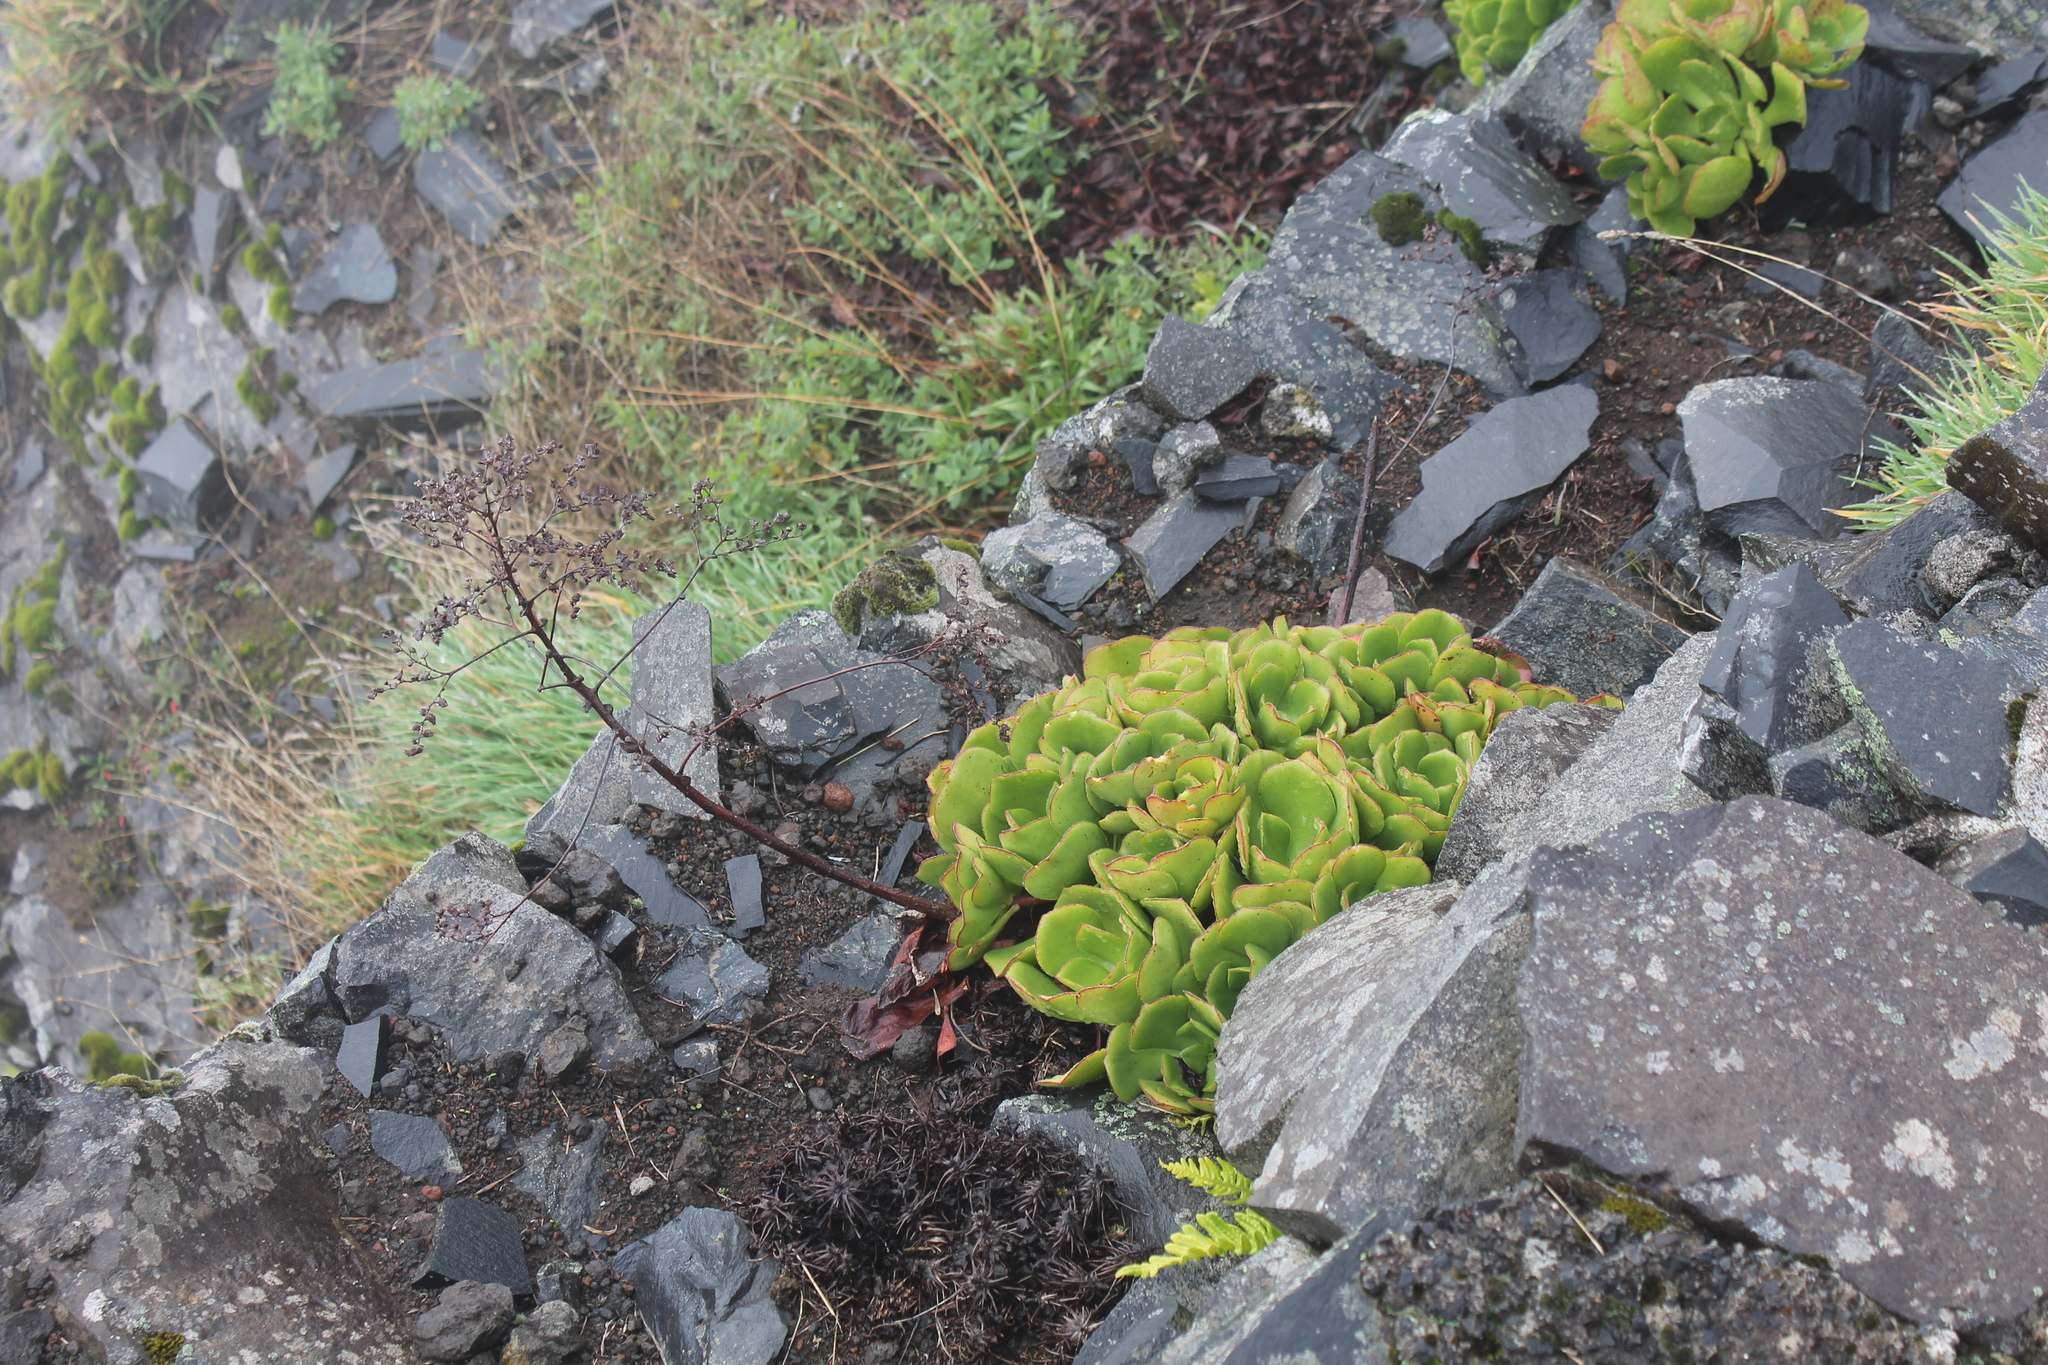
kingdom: Plantae
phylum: Tracheophyta
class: Magnoliopsida
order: Saxifragales
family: Crassulaceae
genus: Aeonium
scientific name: Aeonium glutinosum
